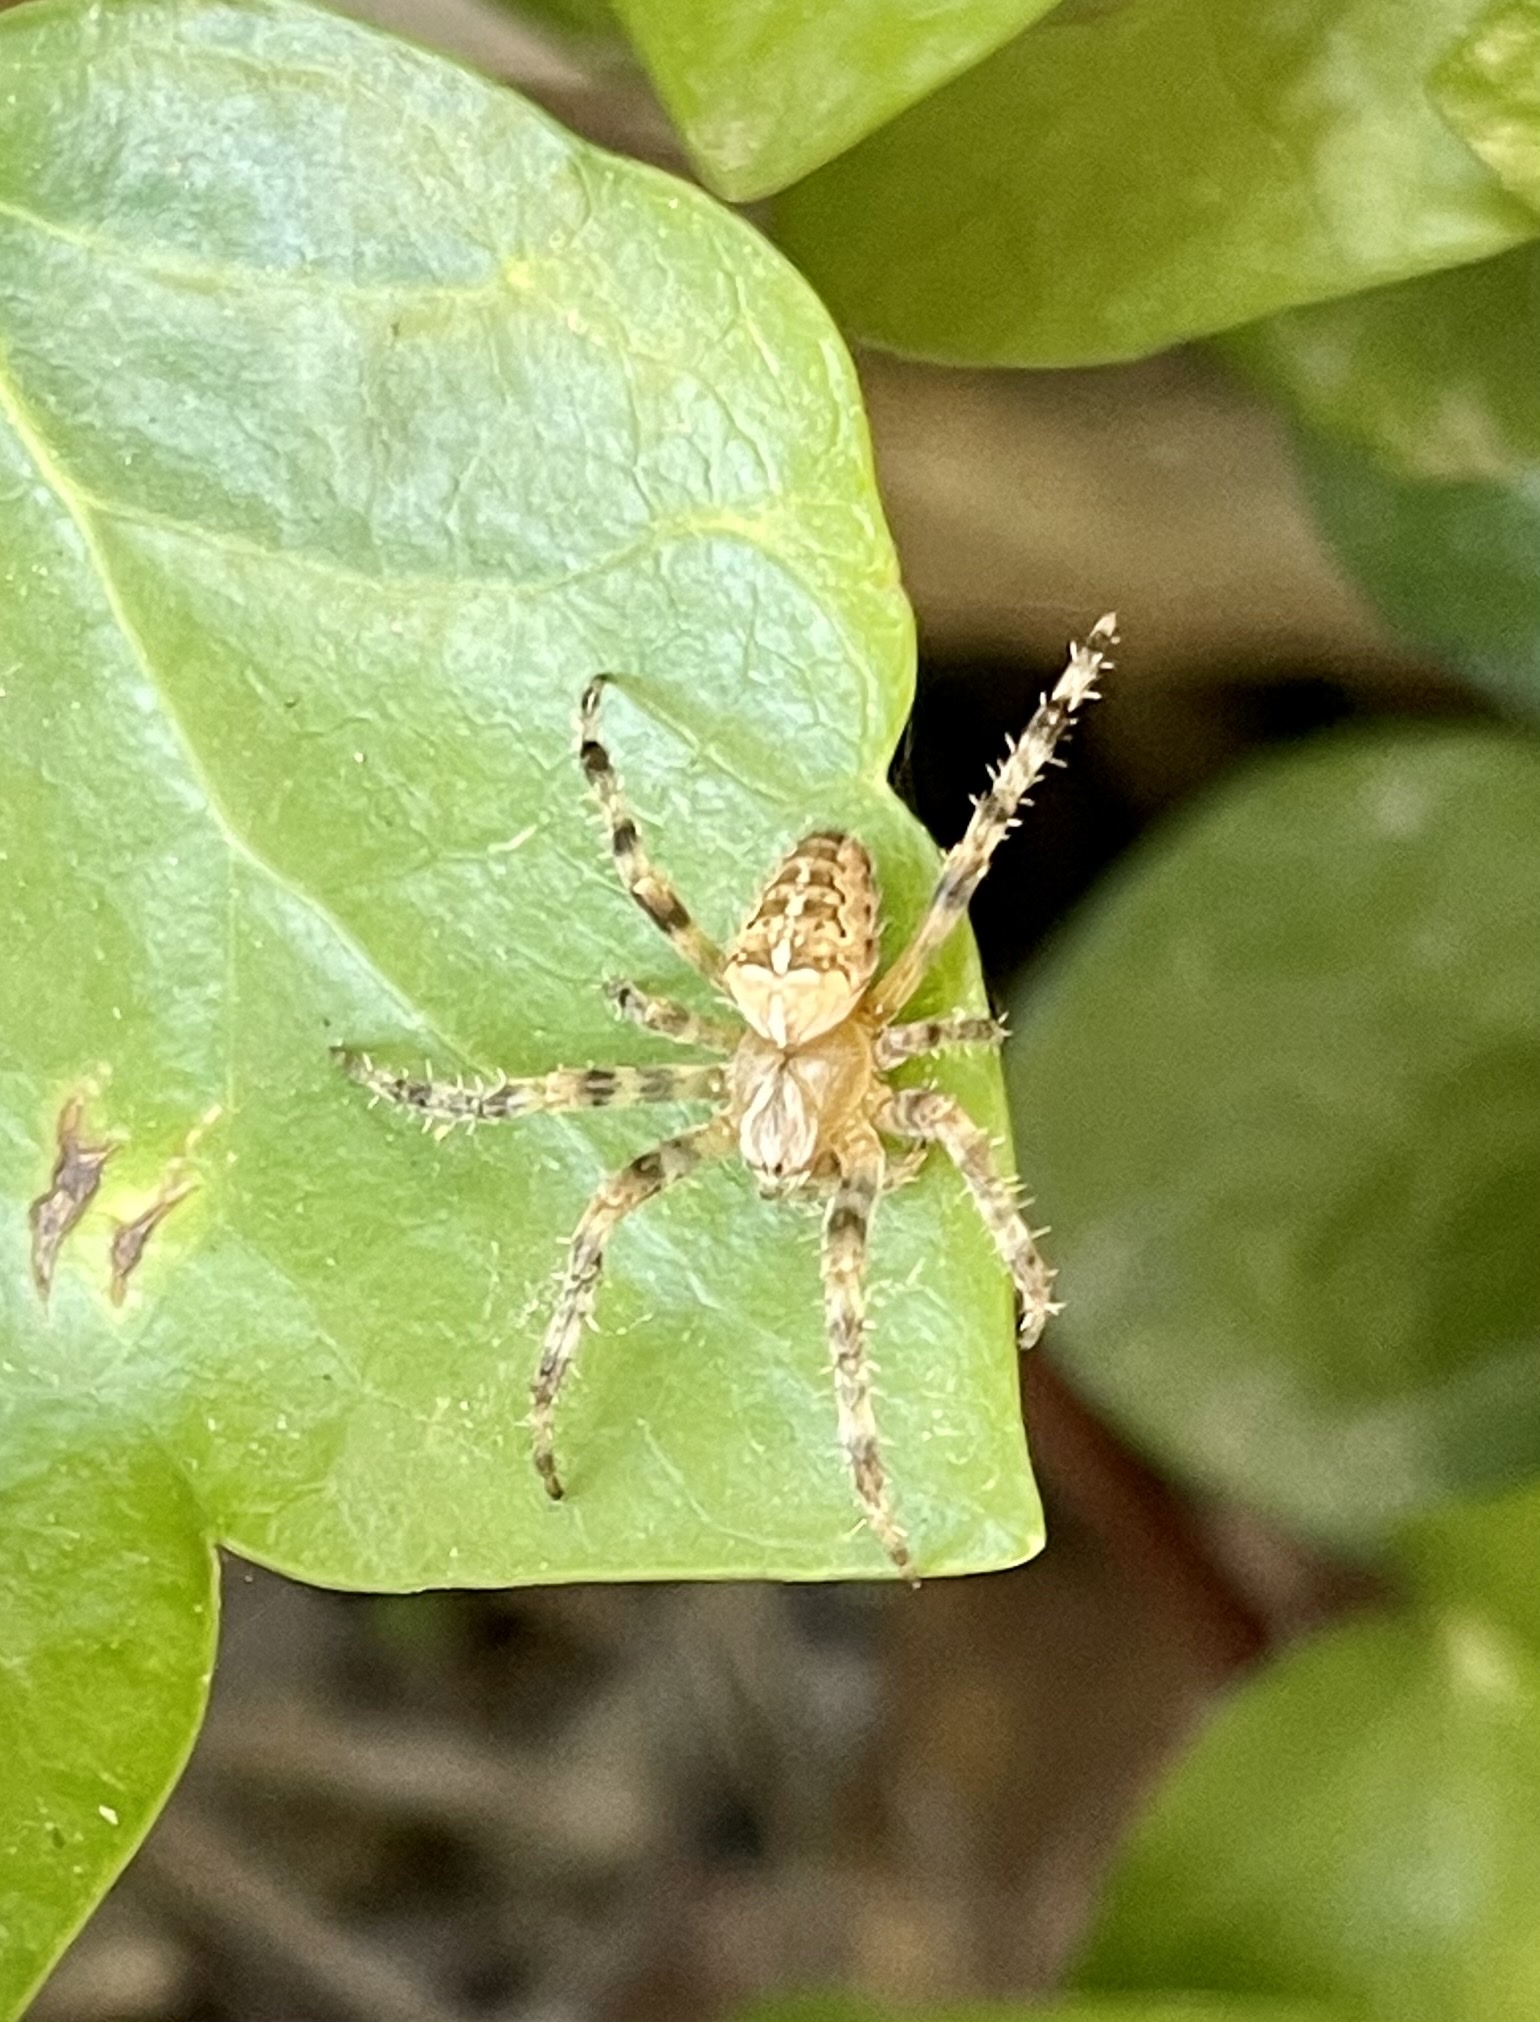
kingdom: Animalia
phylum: Arthropoda
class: Arachnida
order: Araneae
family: Araneidae
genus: Araneus
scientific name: Araneus diadematus
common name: Cross orbweaver
